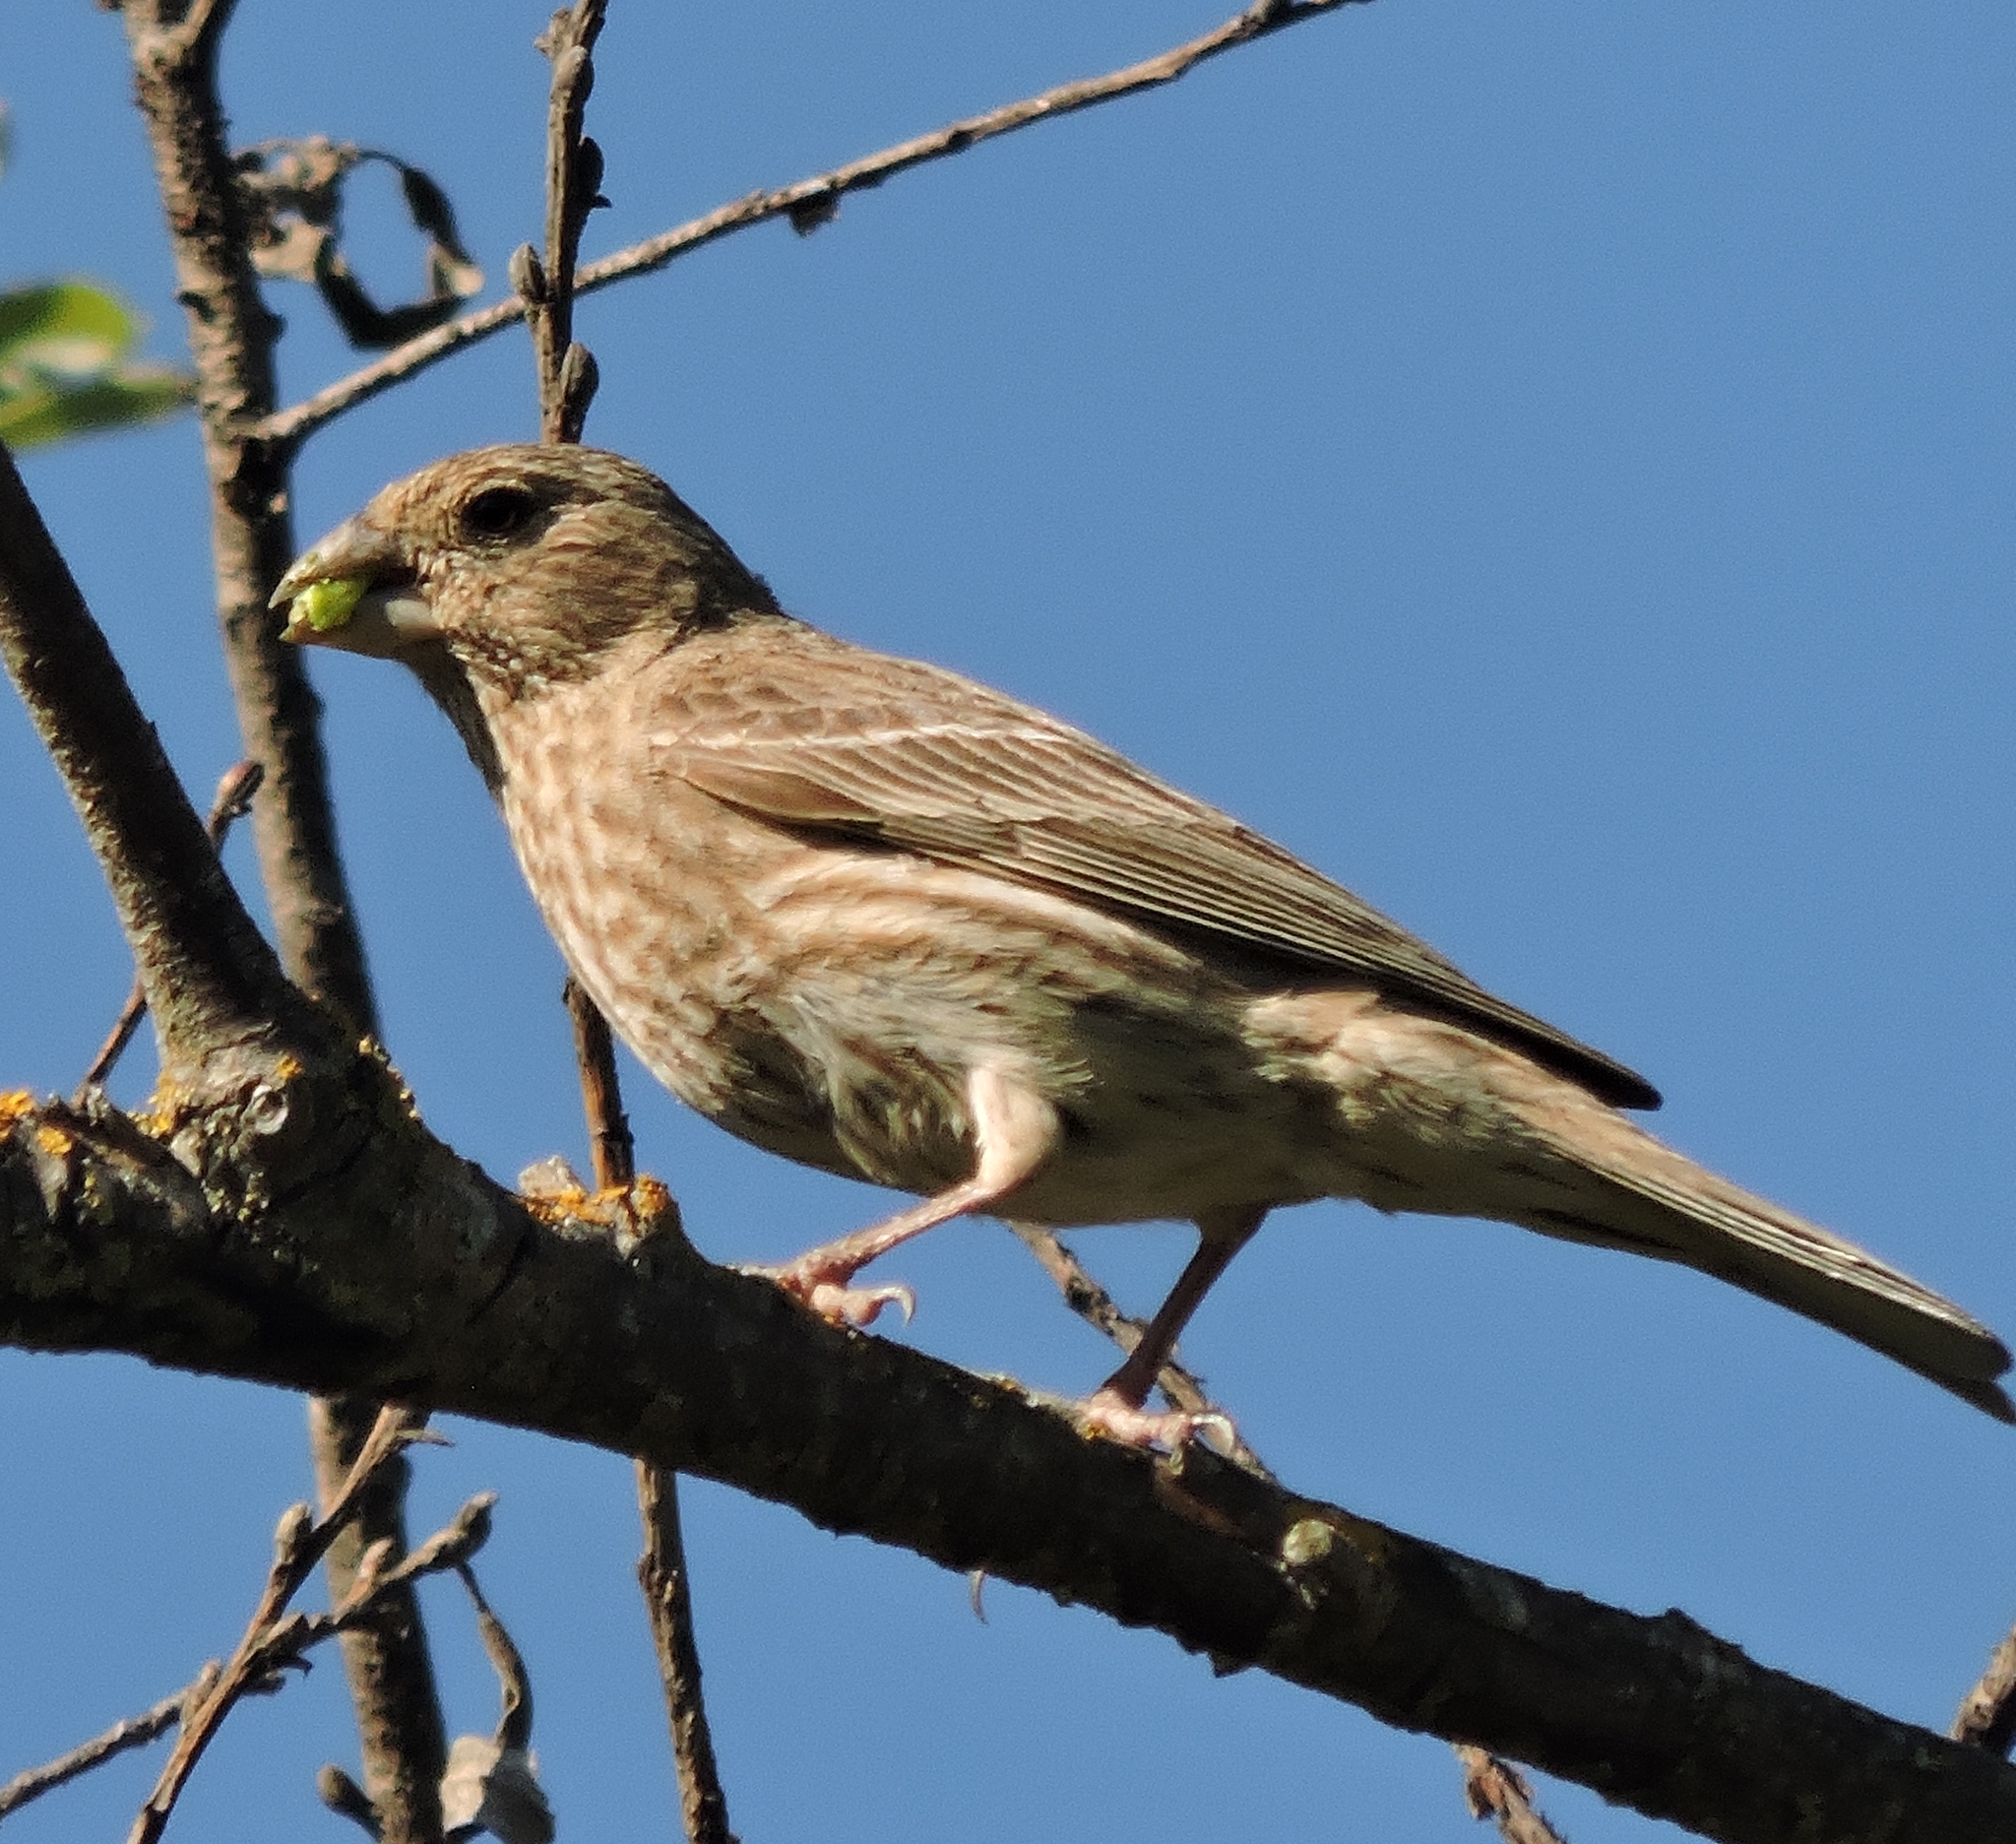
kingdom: Animalia
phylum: Chordata
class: Aves
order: Passeriformes
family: Fringillidae
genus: Haemorhous
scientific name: Haemorhous mexicanus
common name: House finch
